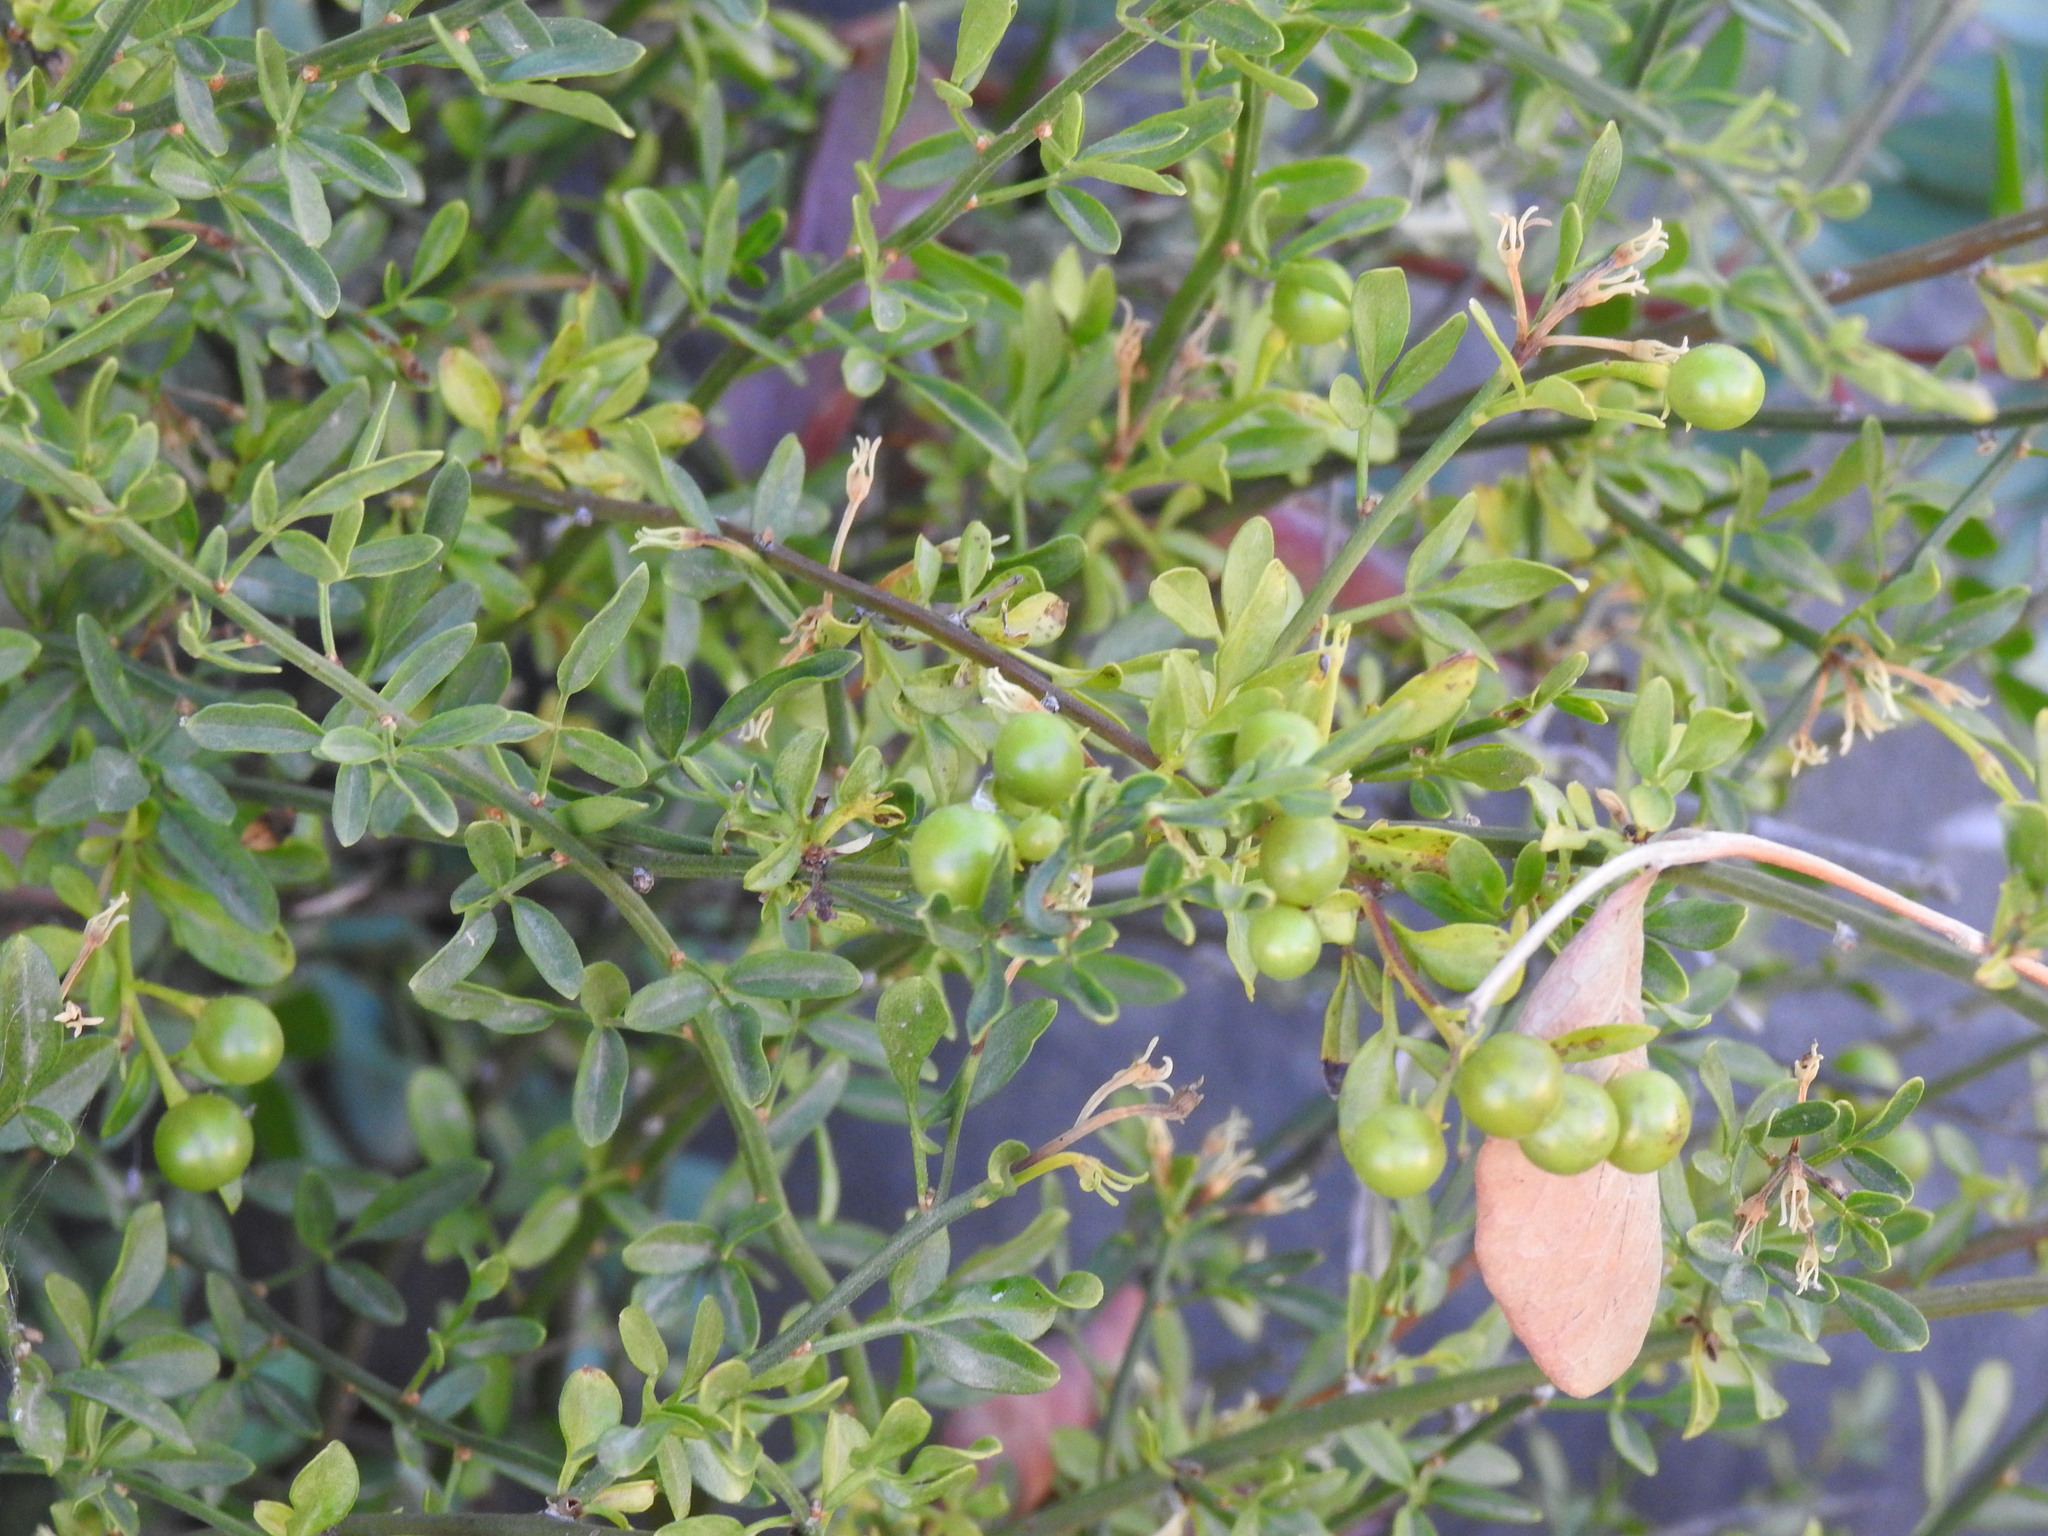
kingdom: Plantae
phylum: Tracheophyta
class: Magnoliopsida
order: Lamiales
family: Oleaceae
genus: Chrysojasminum
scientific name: Chrysojasminum fruticans
